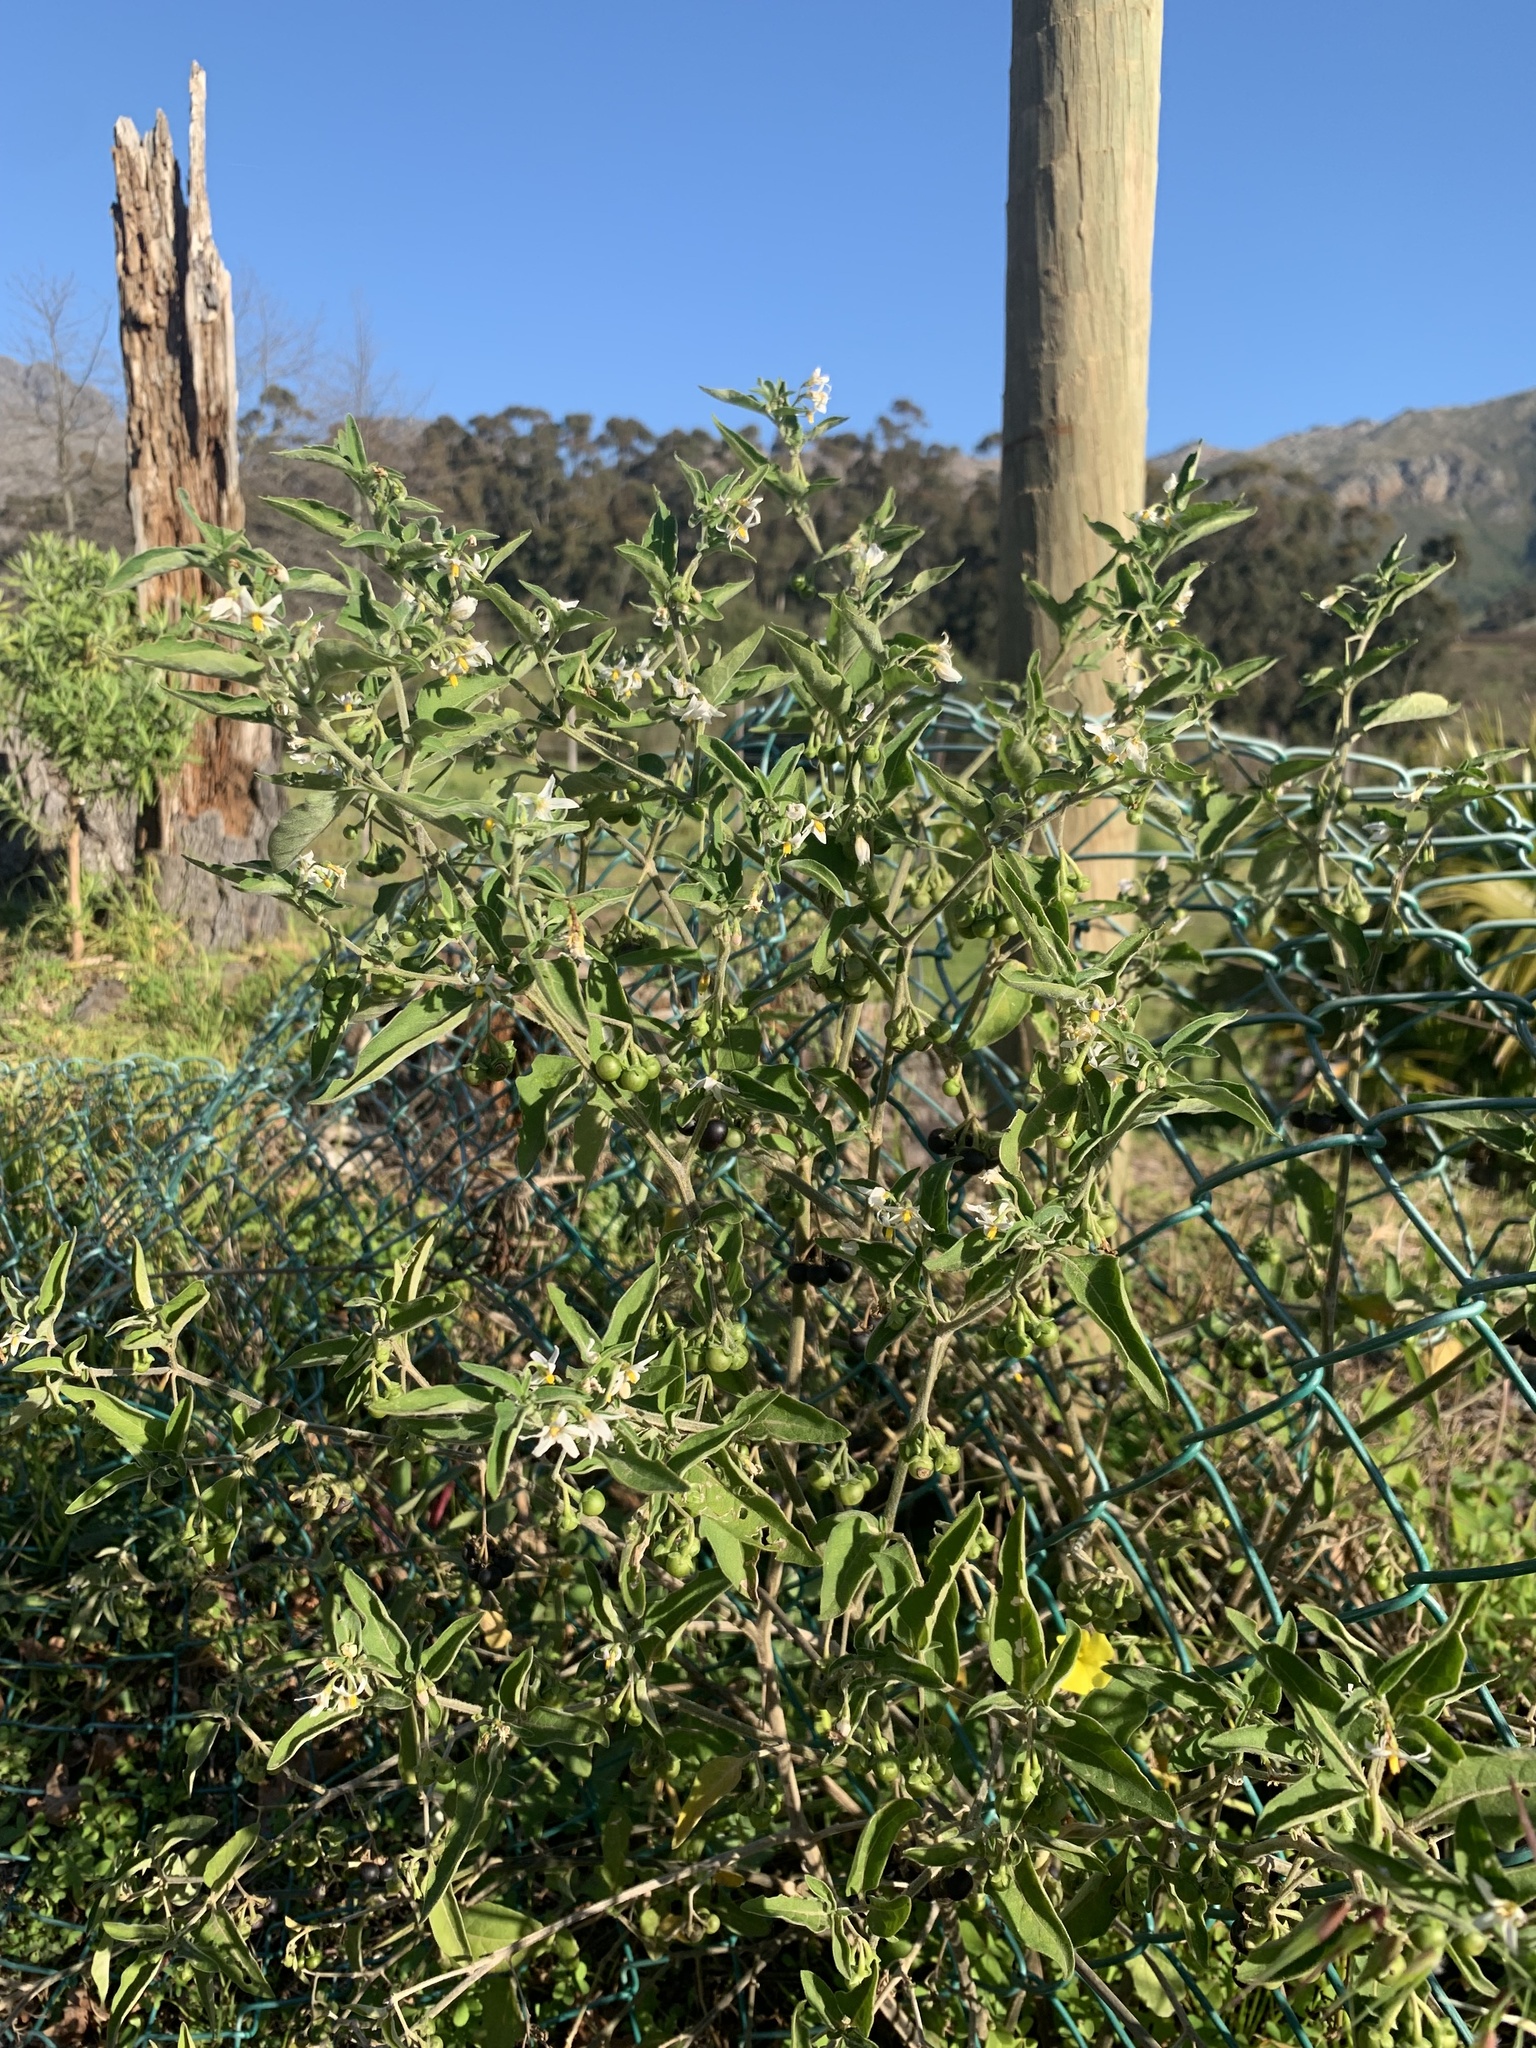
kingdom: Plantae
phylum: Tracheophyta
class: Magnoliopsida
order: Solanales
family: Solanaceae
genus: Solanum
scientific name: Solanum chenopodioides
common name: Tall nightshade
